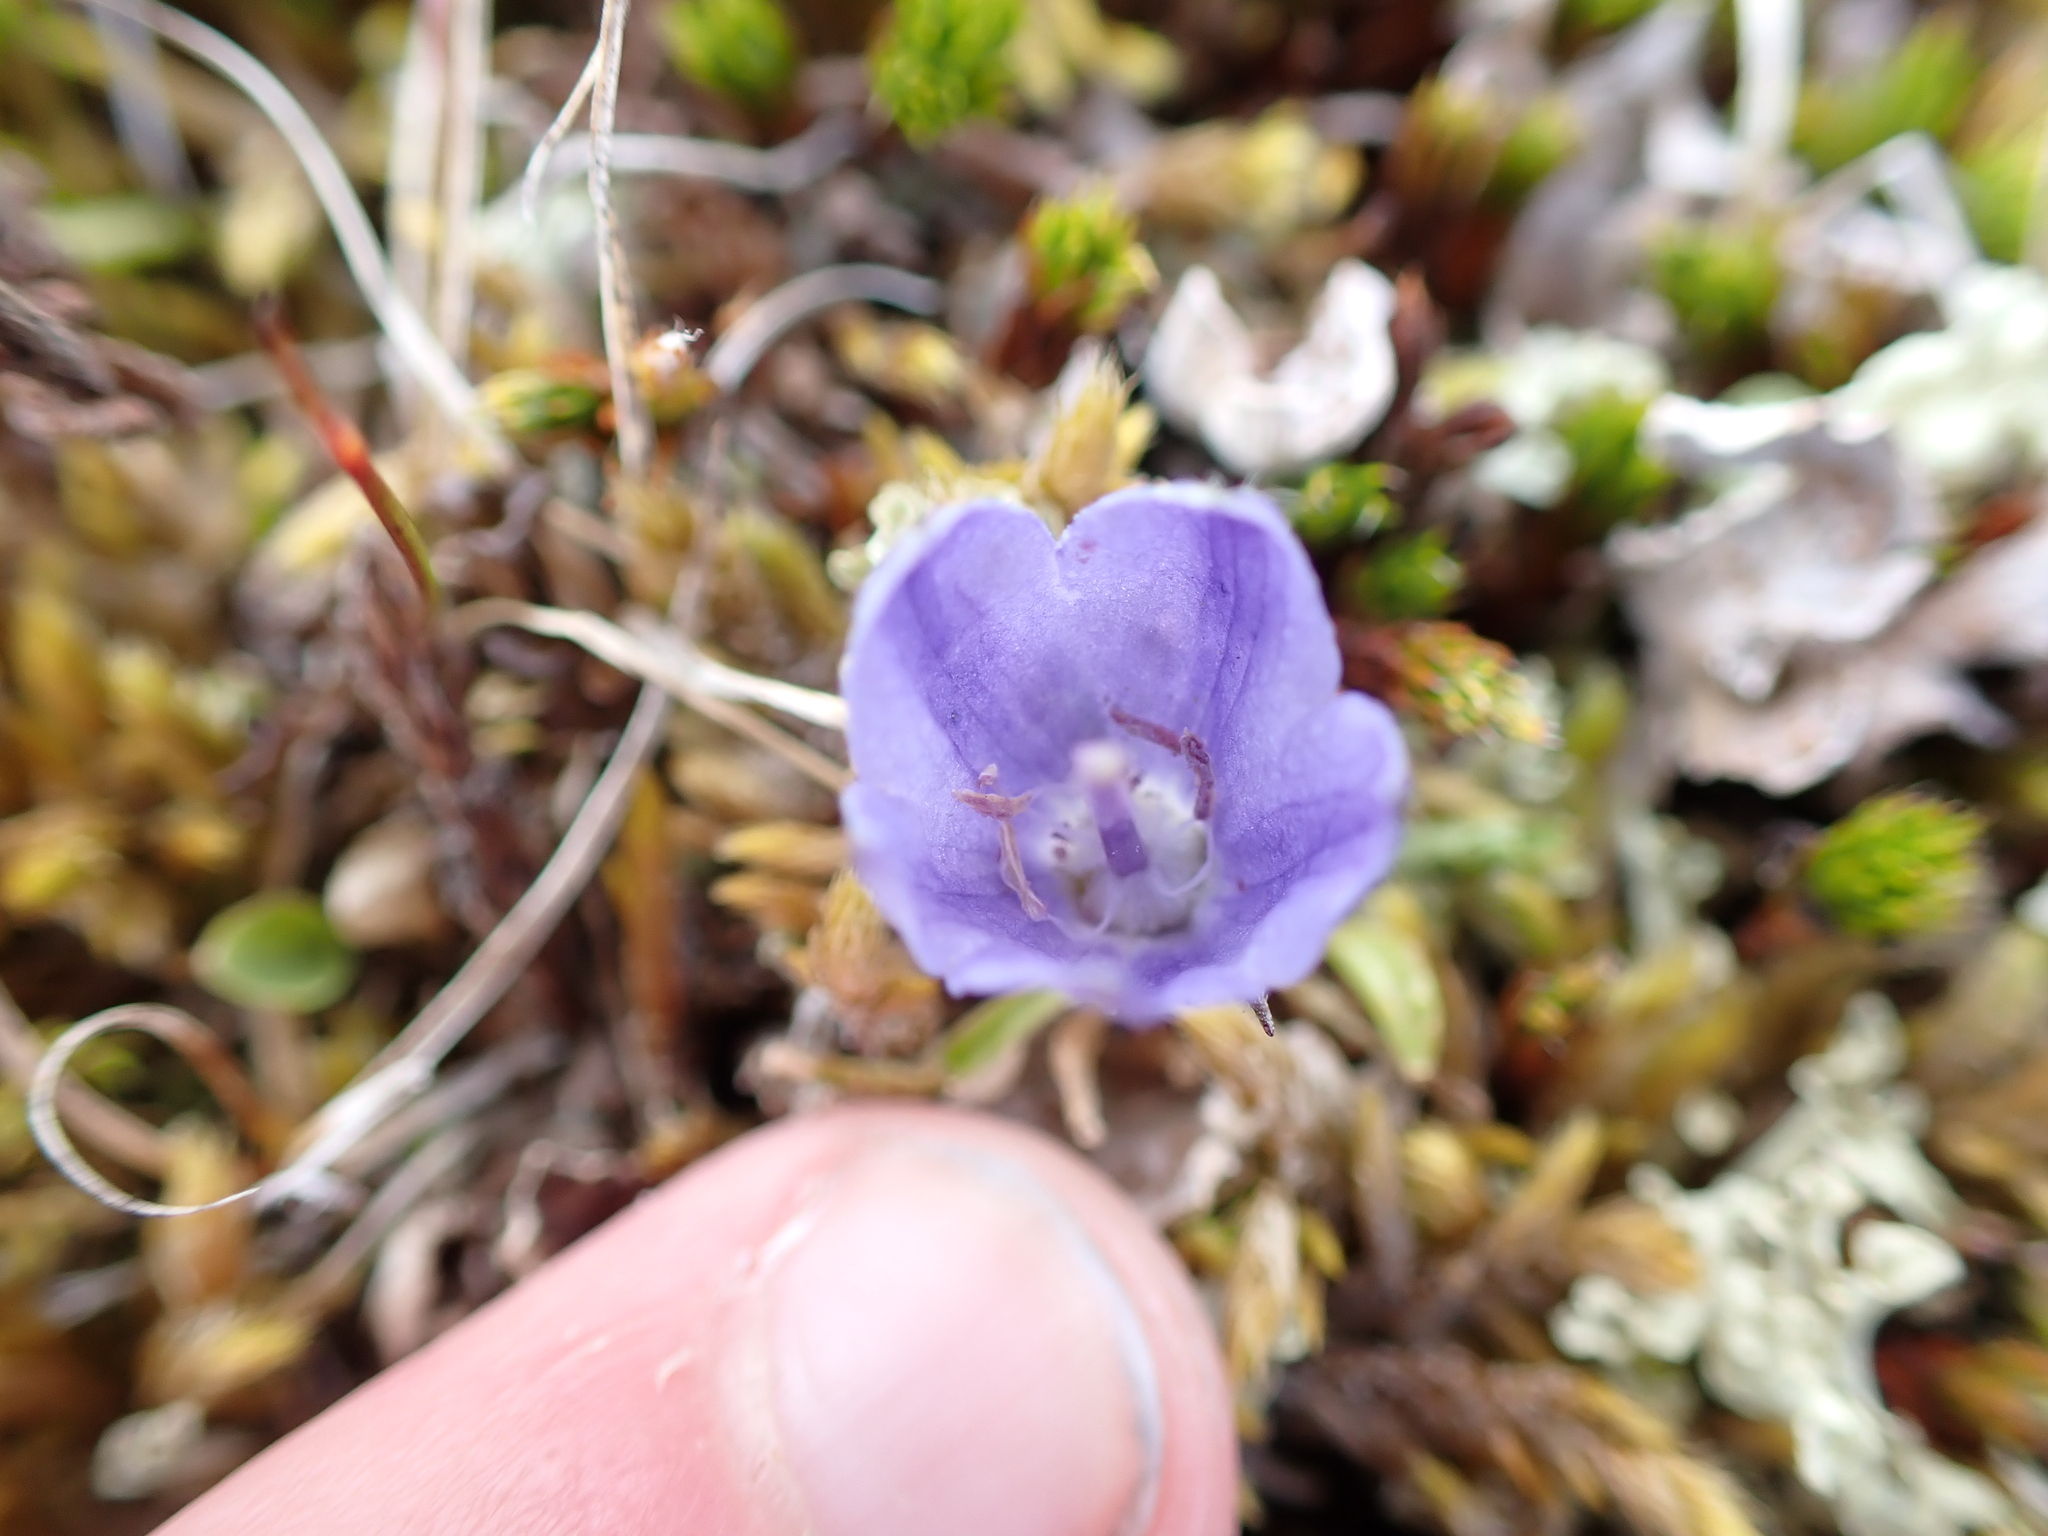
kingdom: Plantae
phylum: Tracheophyta
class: Magnoliopsida
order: Asterales
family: Campanulaceae
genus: Campanula
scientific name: Campanula lasiocarpa
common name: Mountain harebell
